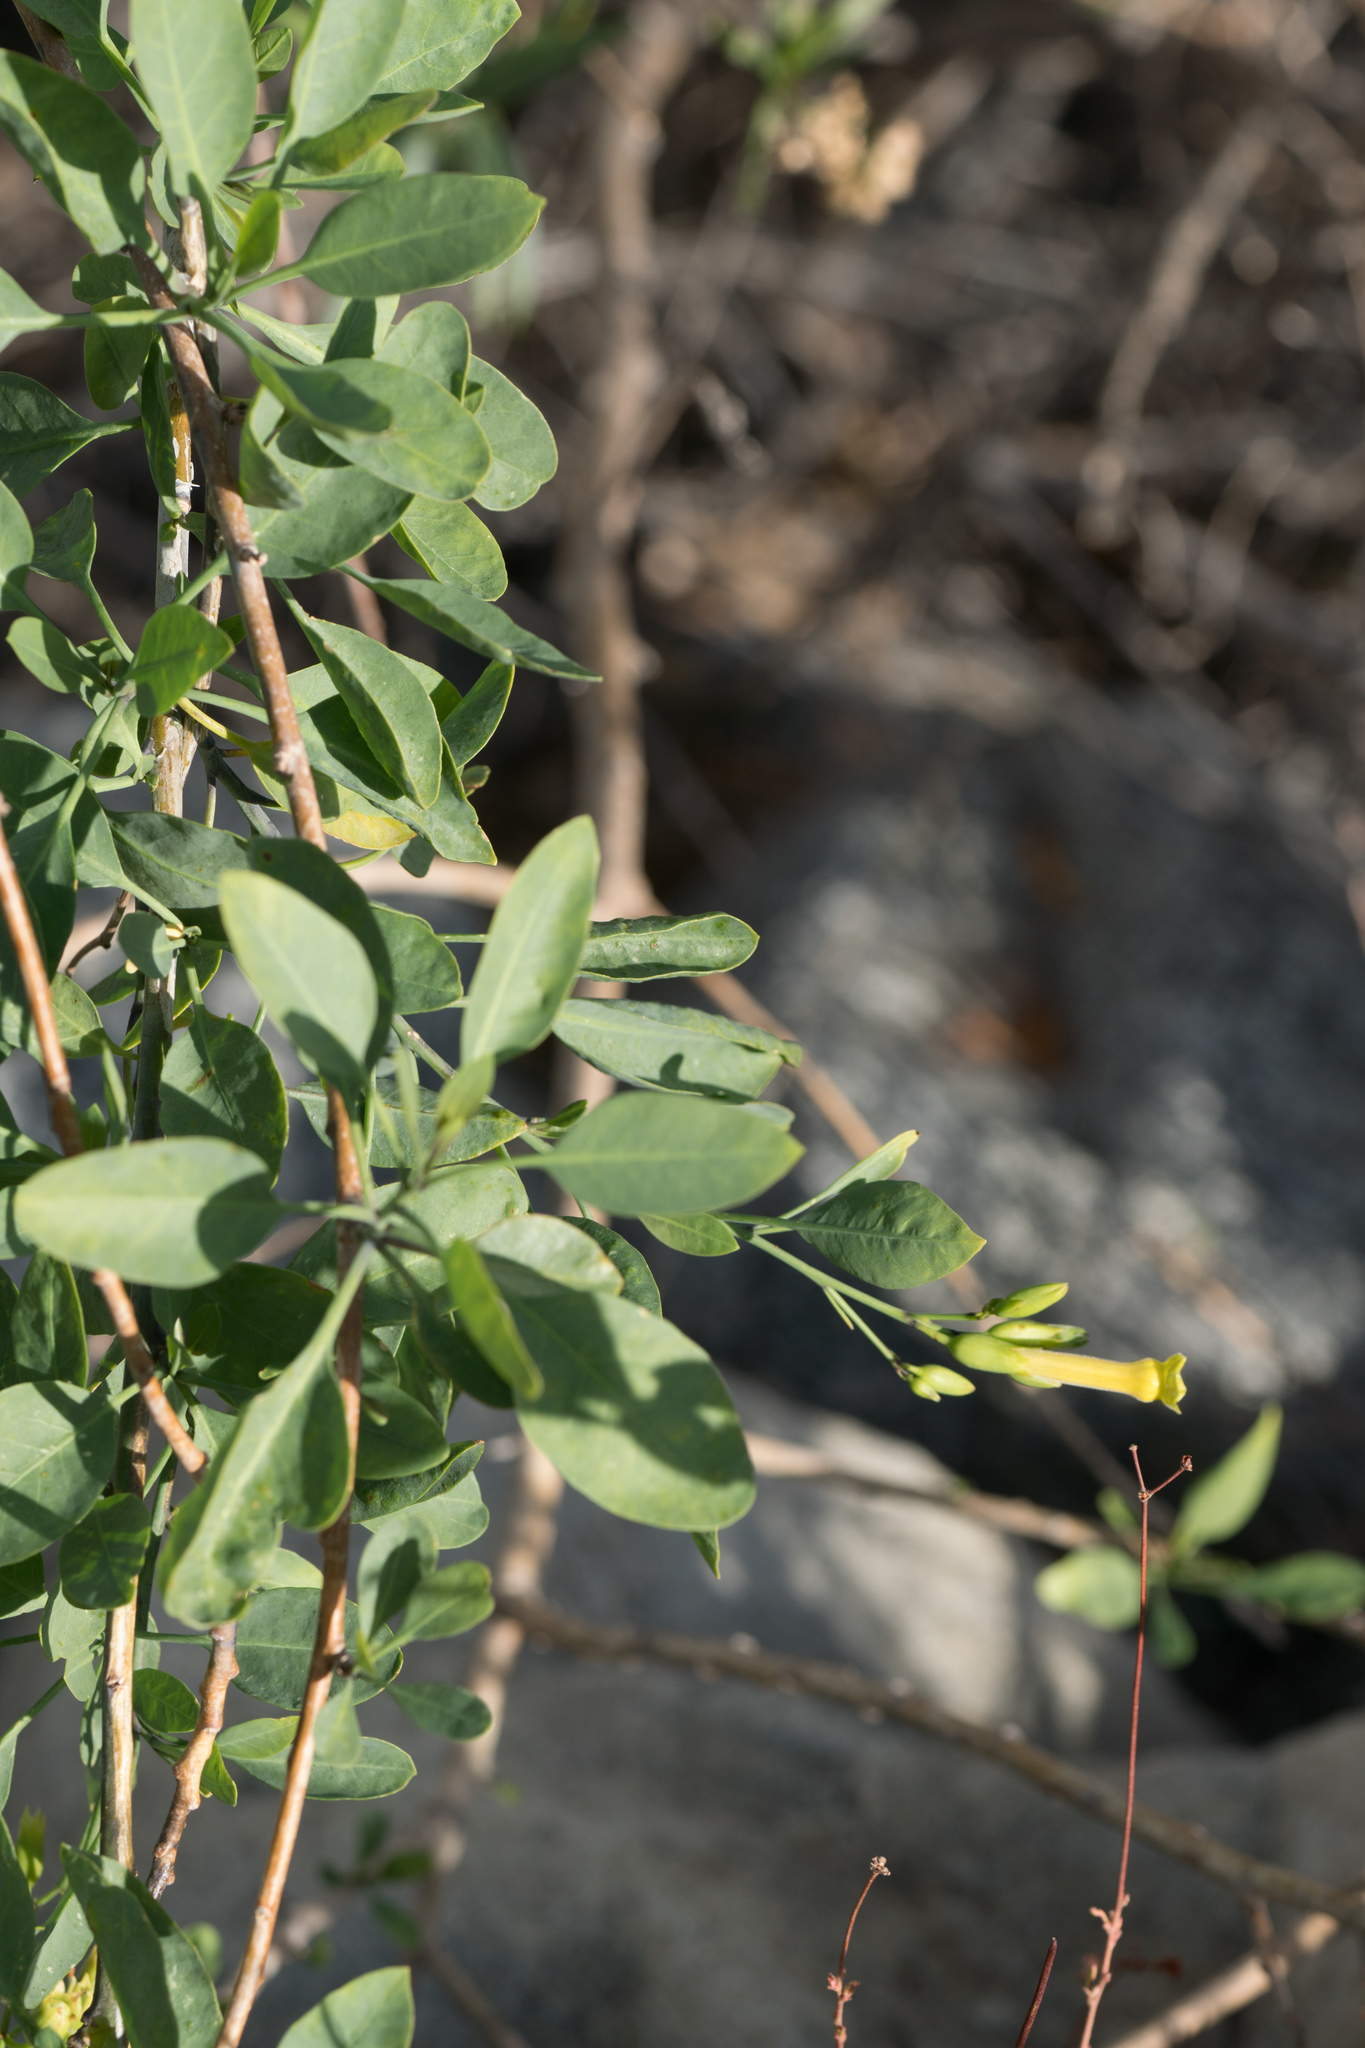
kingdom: Plantae
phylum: Tracheophyta
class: Magnoliopsida
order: Solanales
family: Solanaceae
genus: Nicotiana
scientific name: Nicotiana glauca
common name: Tree tobacco
